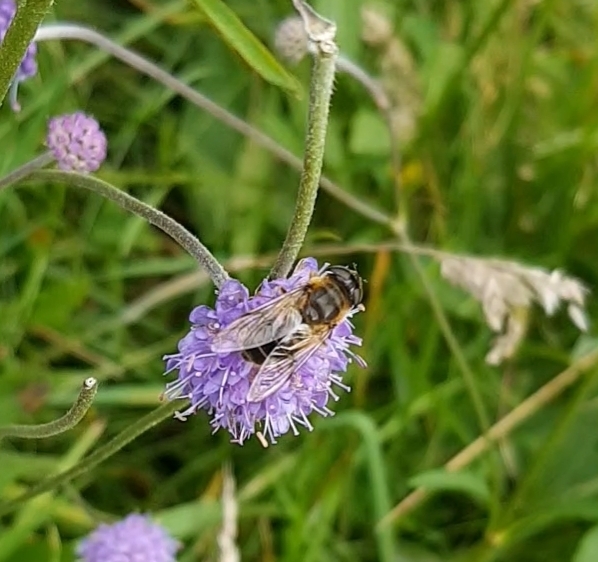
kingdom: Animalia
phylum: Arthropoda
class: Insecta
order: Diptera
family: Syrphidae
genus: Eristalis
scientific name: Eristalis
